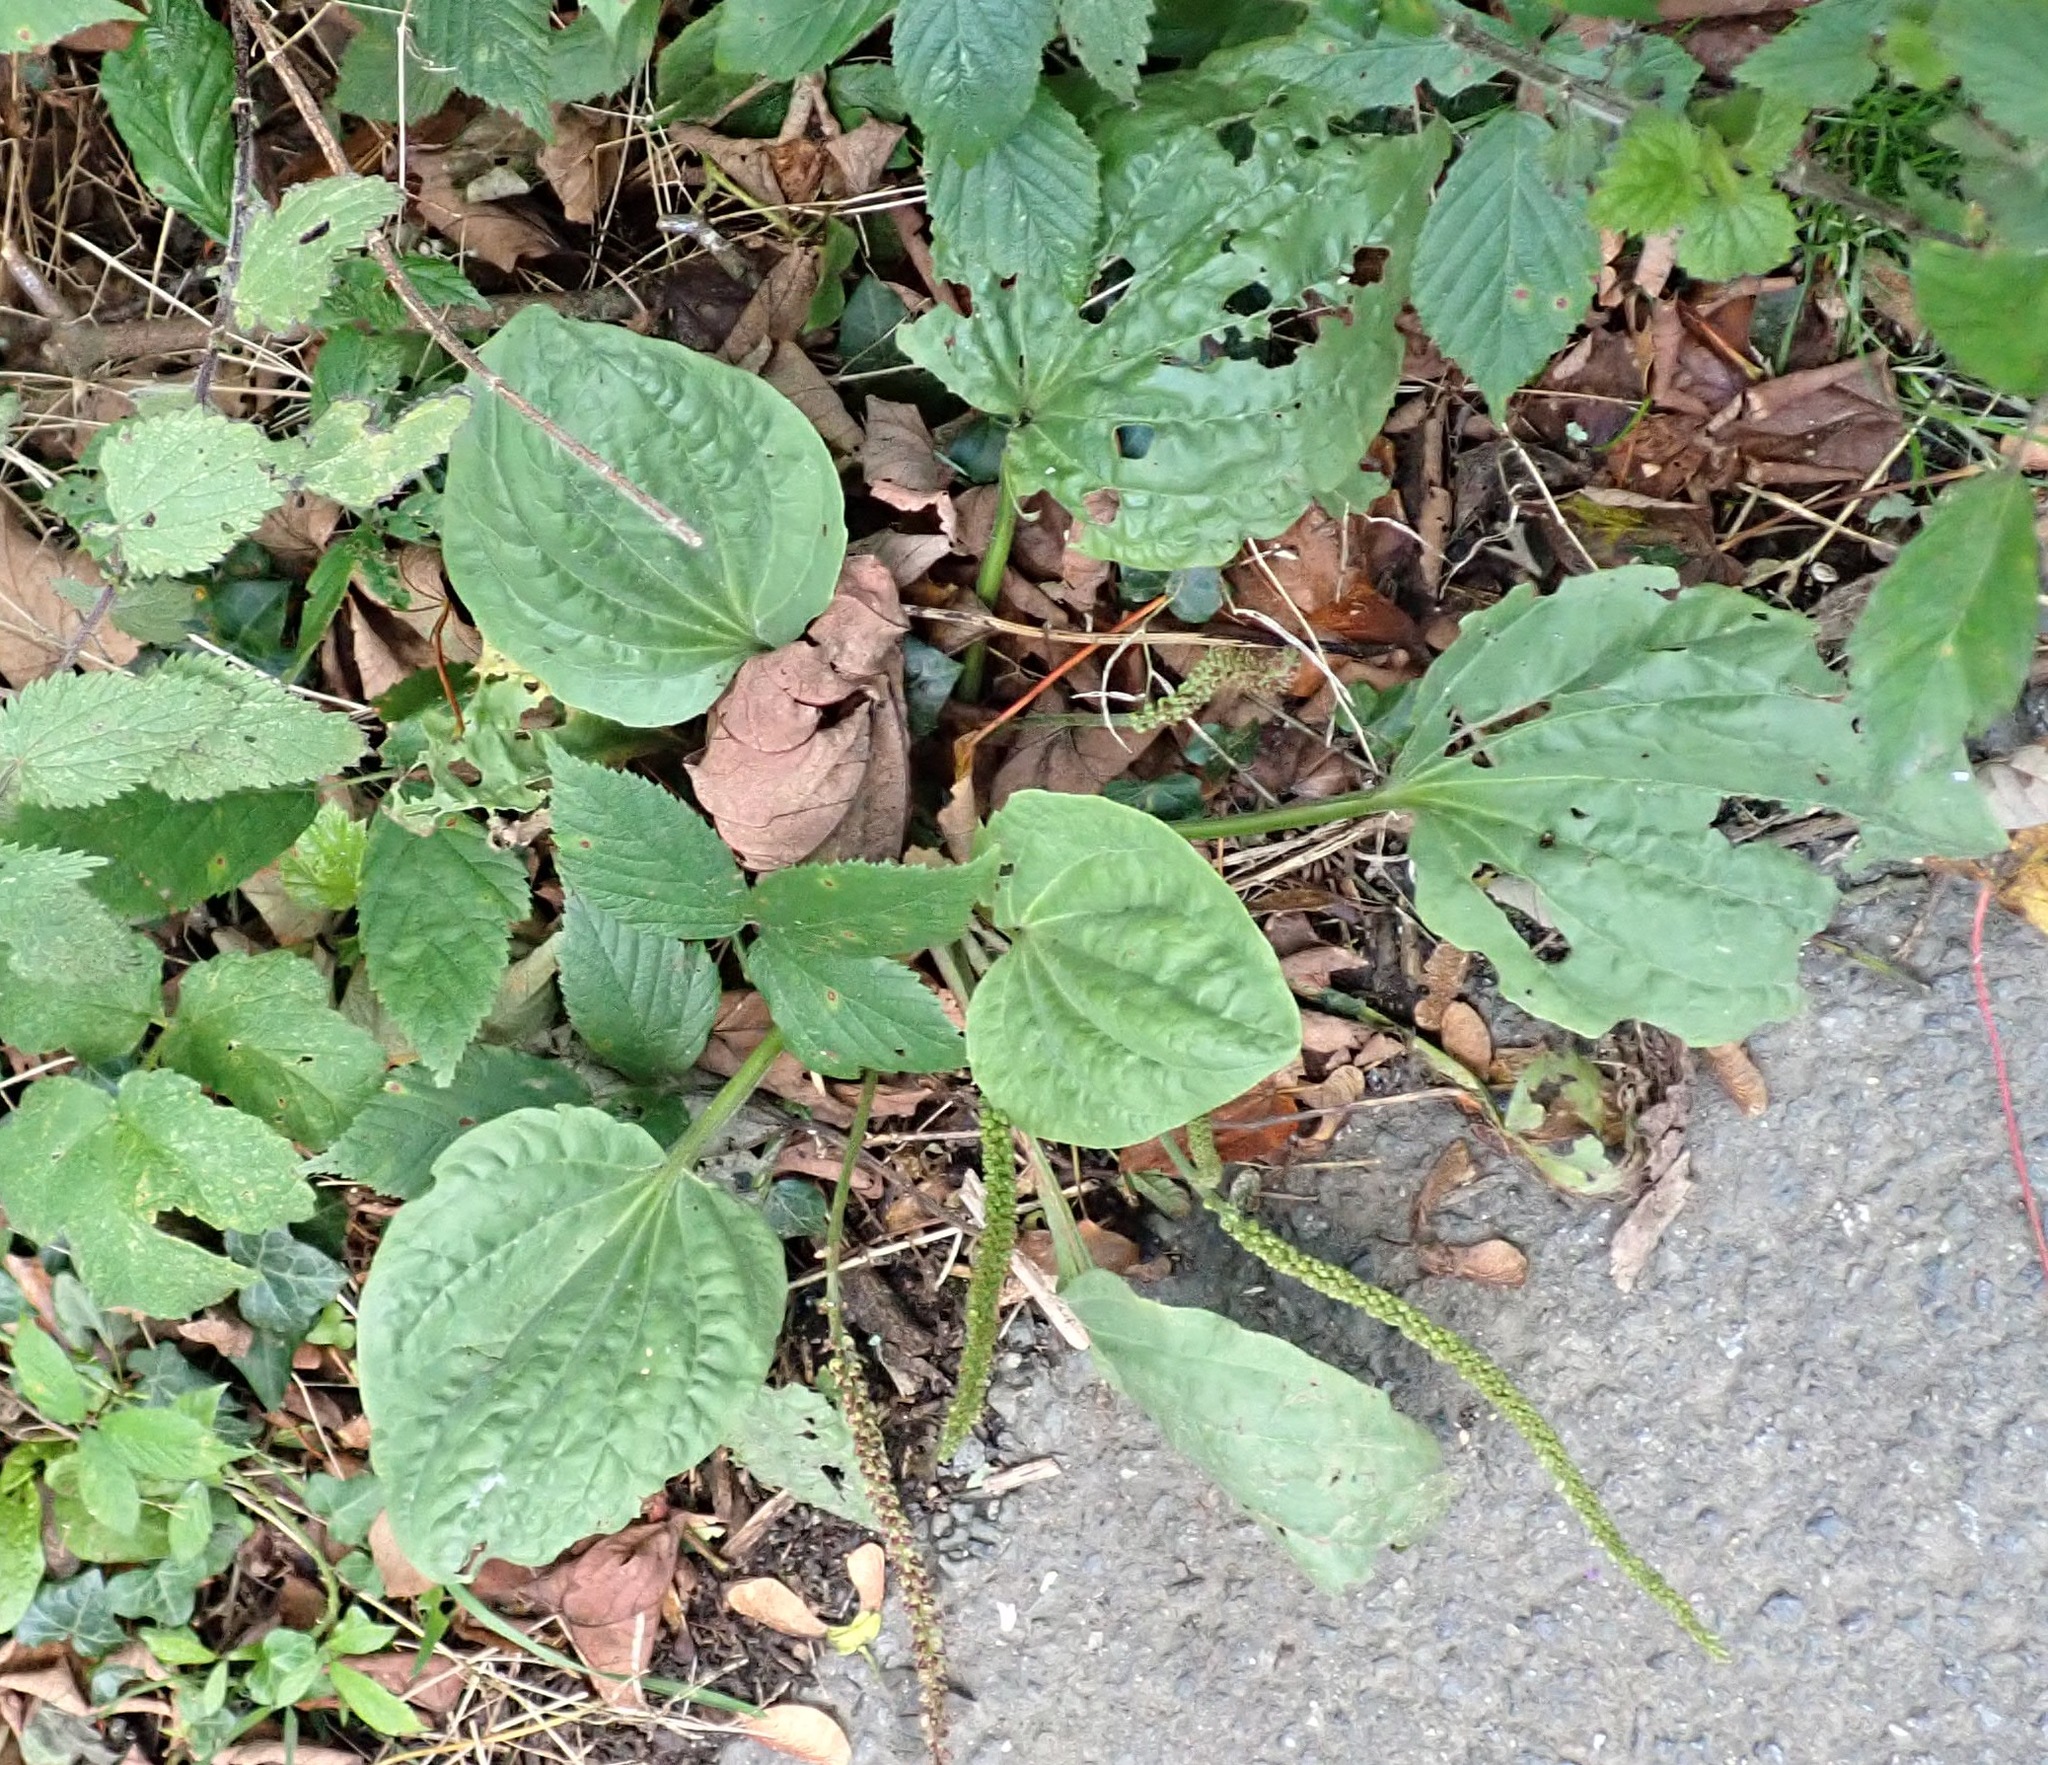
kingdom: Plantae
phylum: Tracheophyta
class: Magnoliopsida
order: Lamiales
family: Plantaginaceae
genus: Plantago
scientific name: Plantago major
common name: Common plantain
